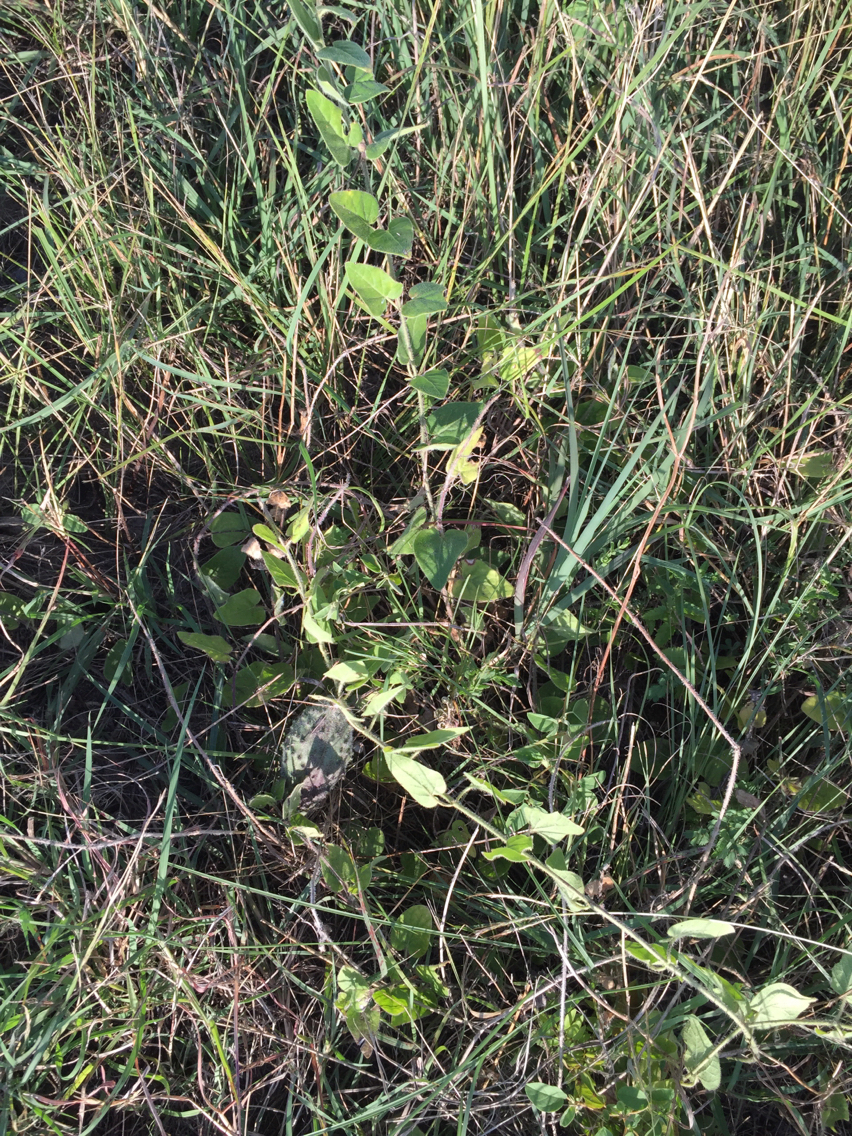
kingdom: Plantae
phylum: Tracheophyta
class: Magnoliopsida
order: Gentianales
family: Apocynaceae
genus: Chthamalia
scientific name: Chthamalia biflora
